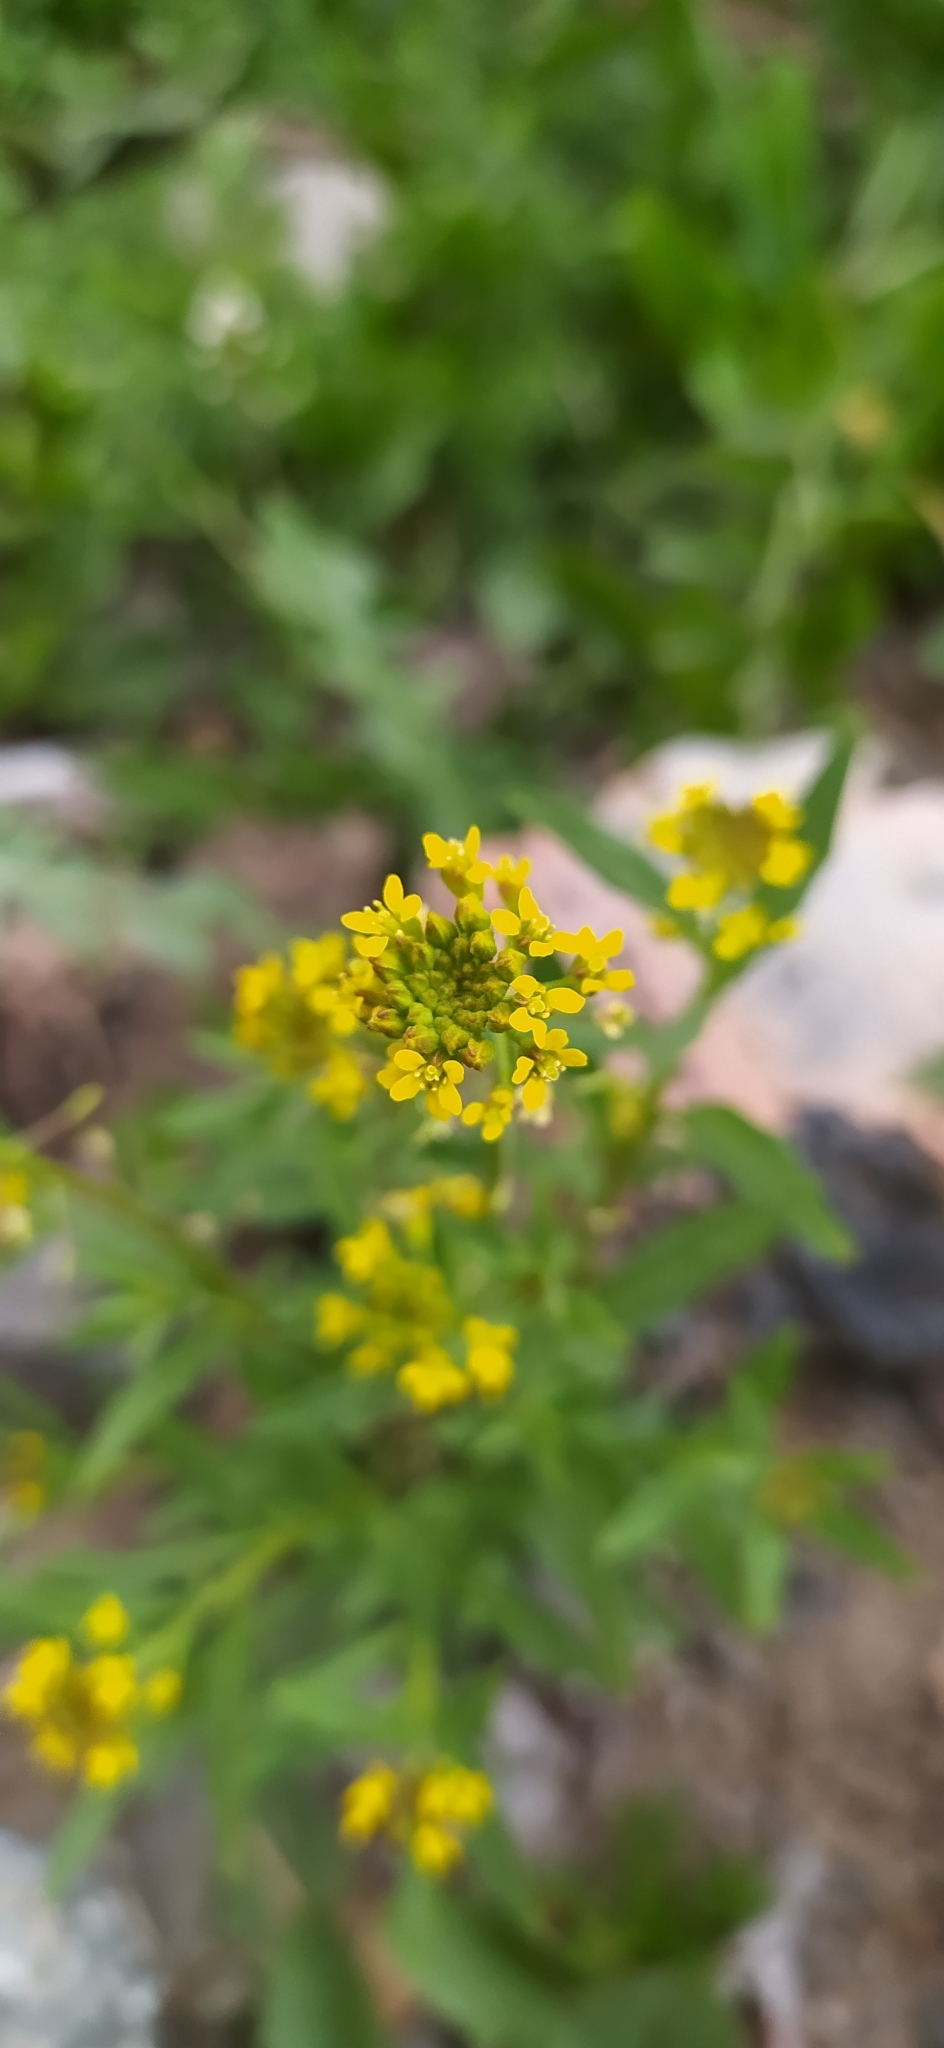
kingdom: Plantae
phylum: Tracheophyta
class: Magnoliopsida
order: Brassicales
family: Brassicaceae
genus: Erysimum
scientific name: Erysimum cheiranthoides
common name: Treacle mustard
